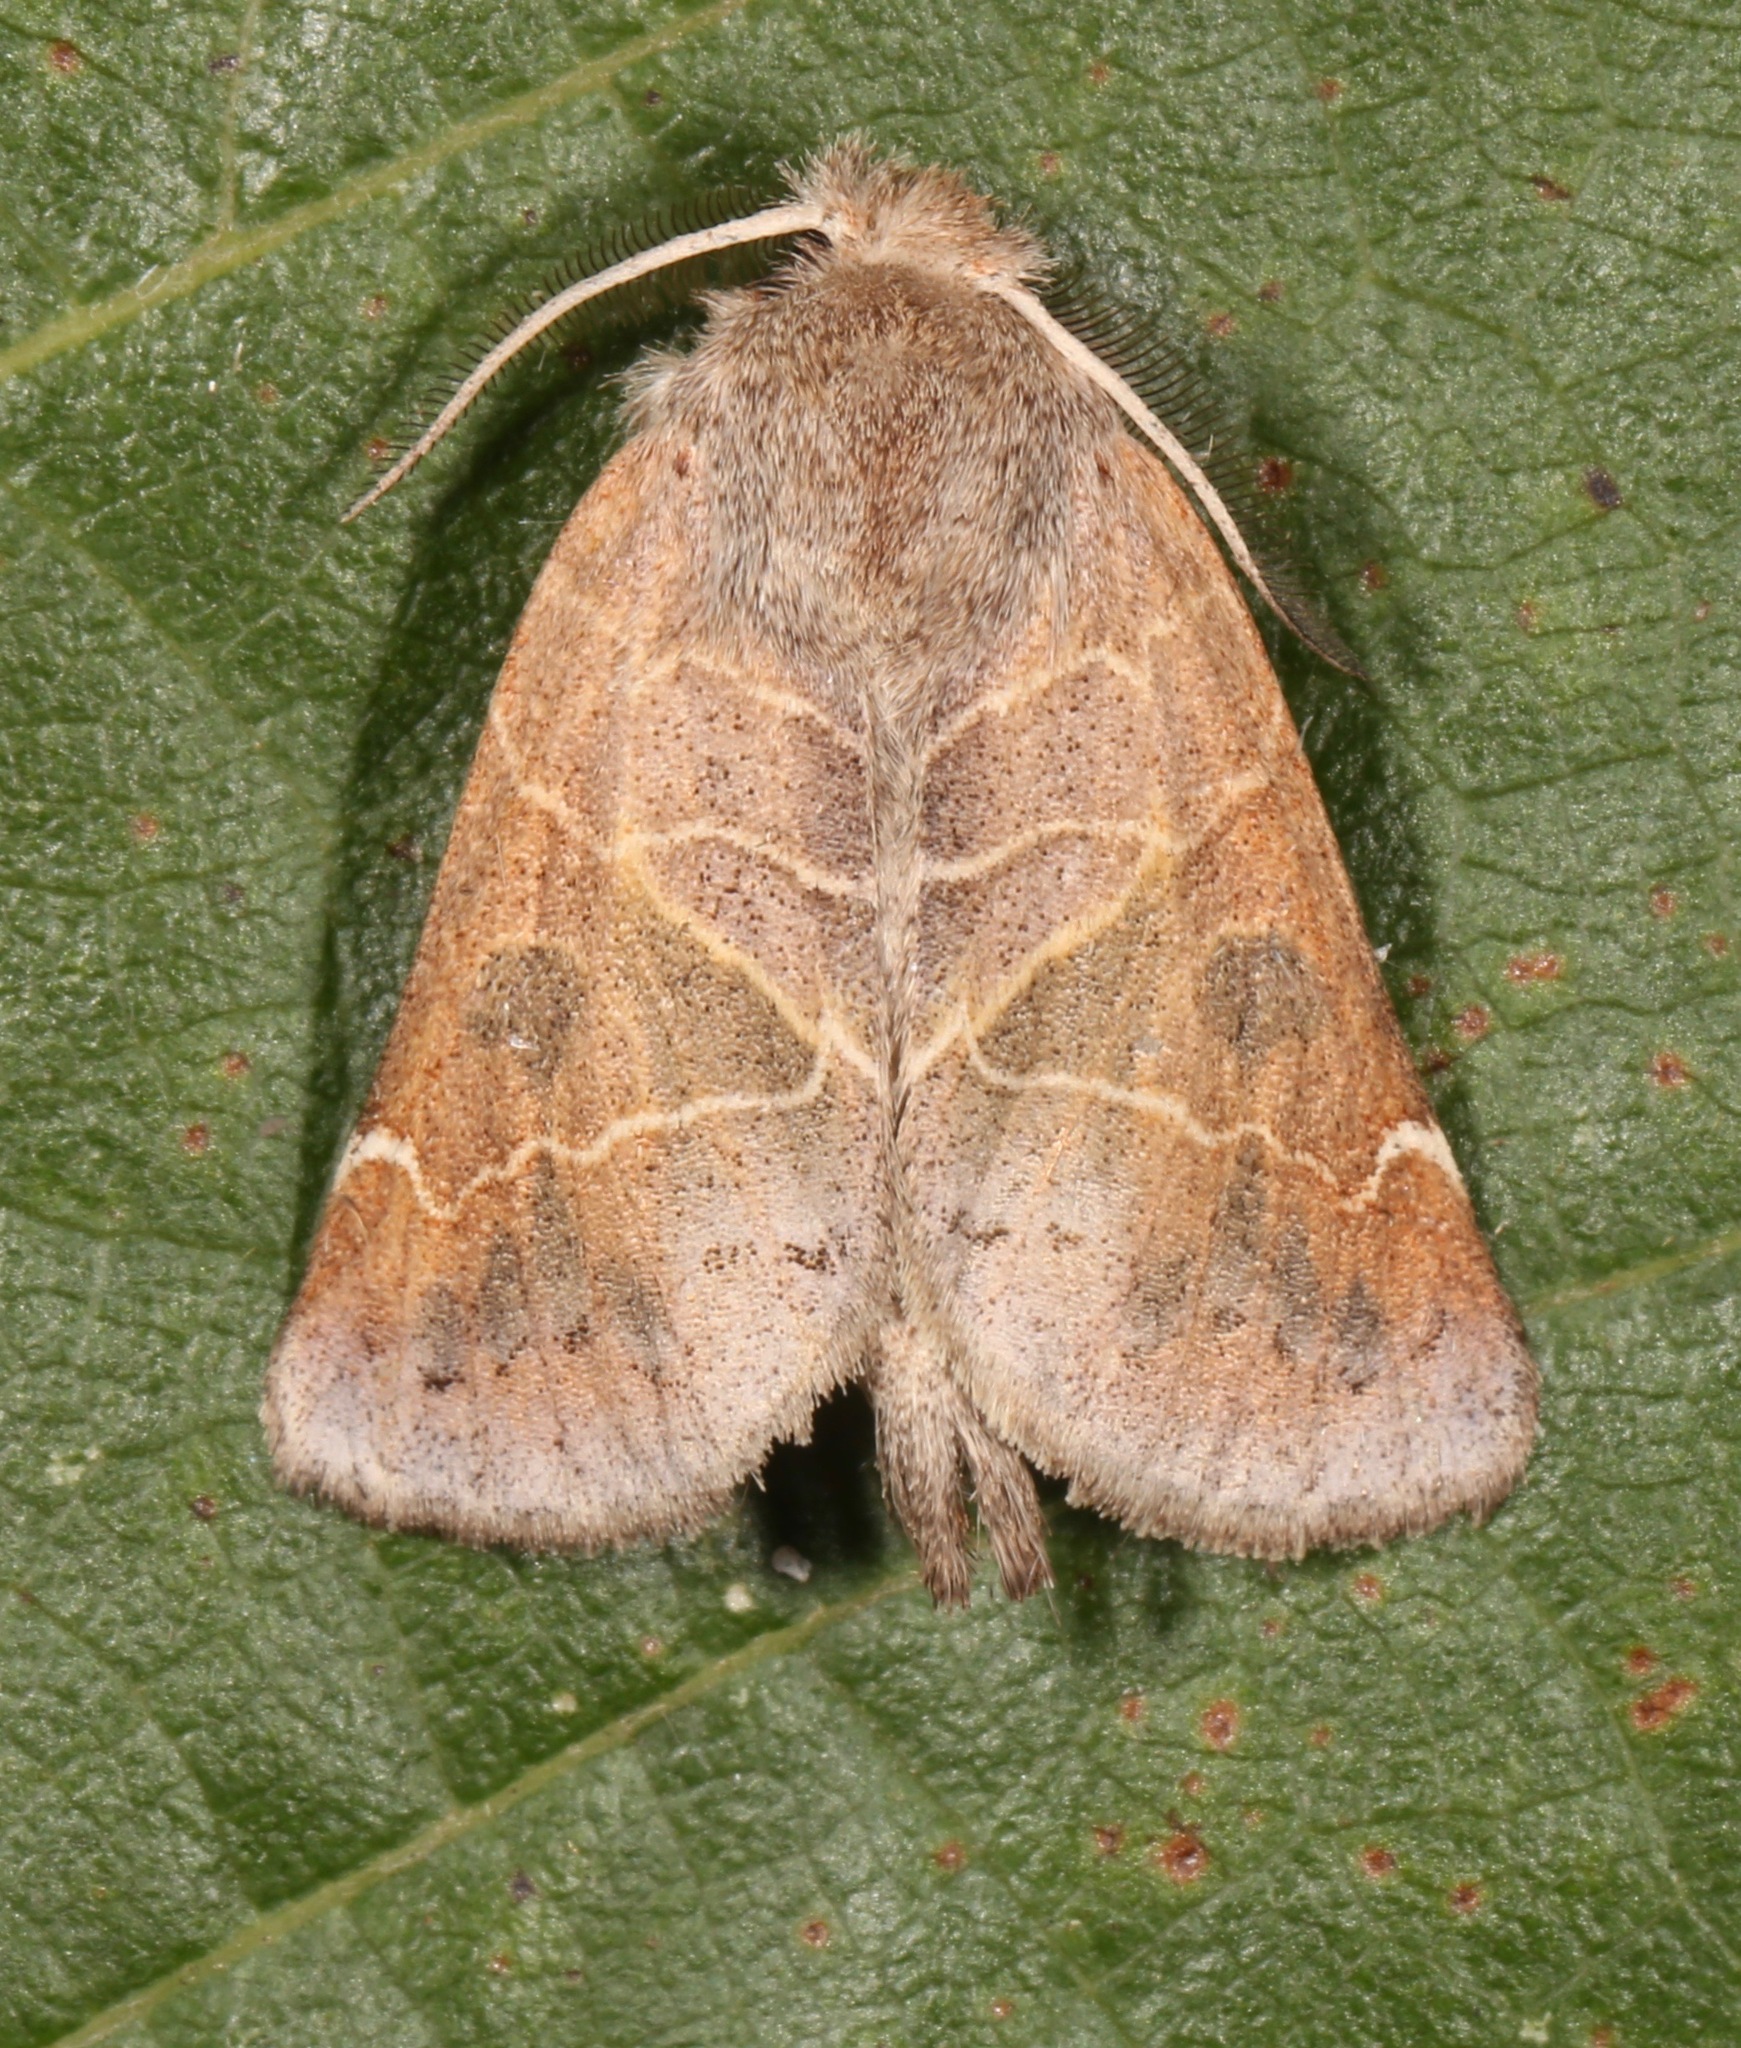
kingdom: Animalia
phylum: Arthropoda
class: Insecta
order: Lepidoptera
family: Notodontidae
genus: Clostera
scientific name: Clostera inornata
